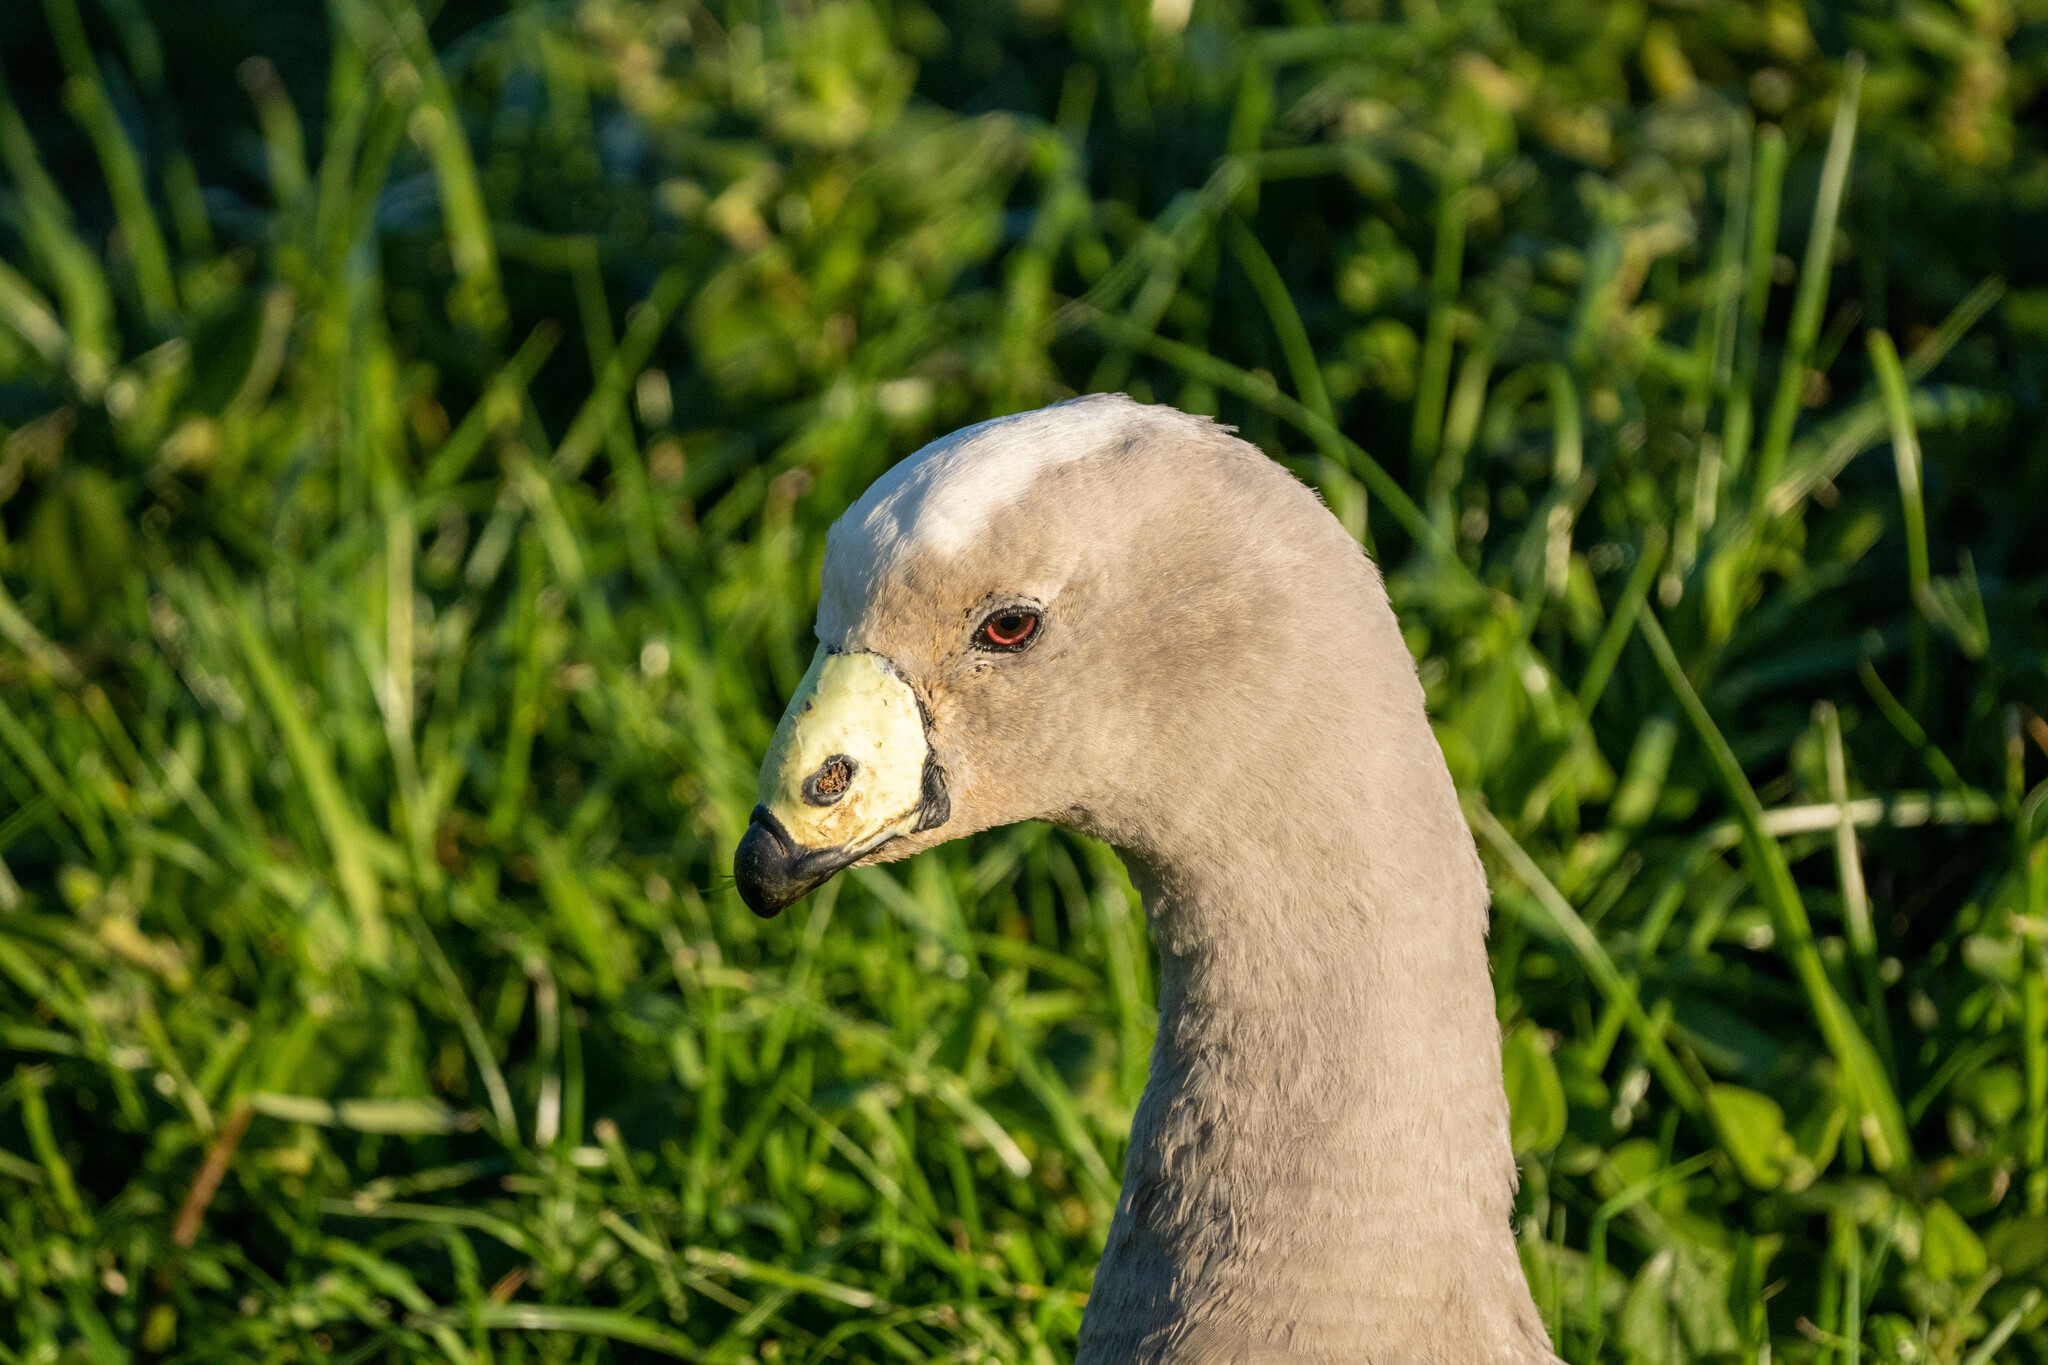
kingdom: Animalia
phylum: Chordata
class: Aves
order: Anseriformes
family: Anatidae
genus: Cereopsis
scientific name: Cereopsis novaehollandiae
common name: Cape barren goose
